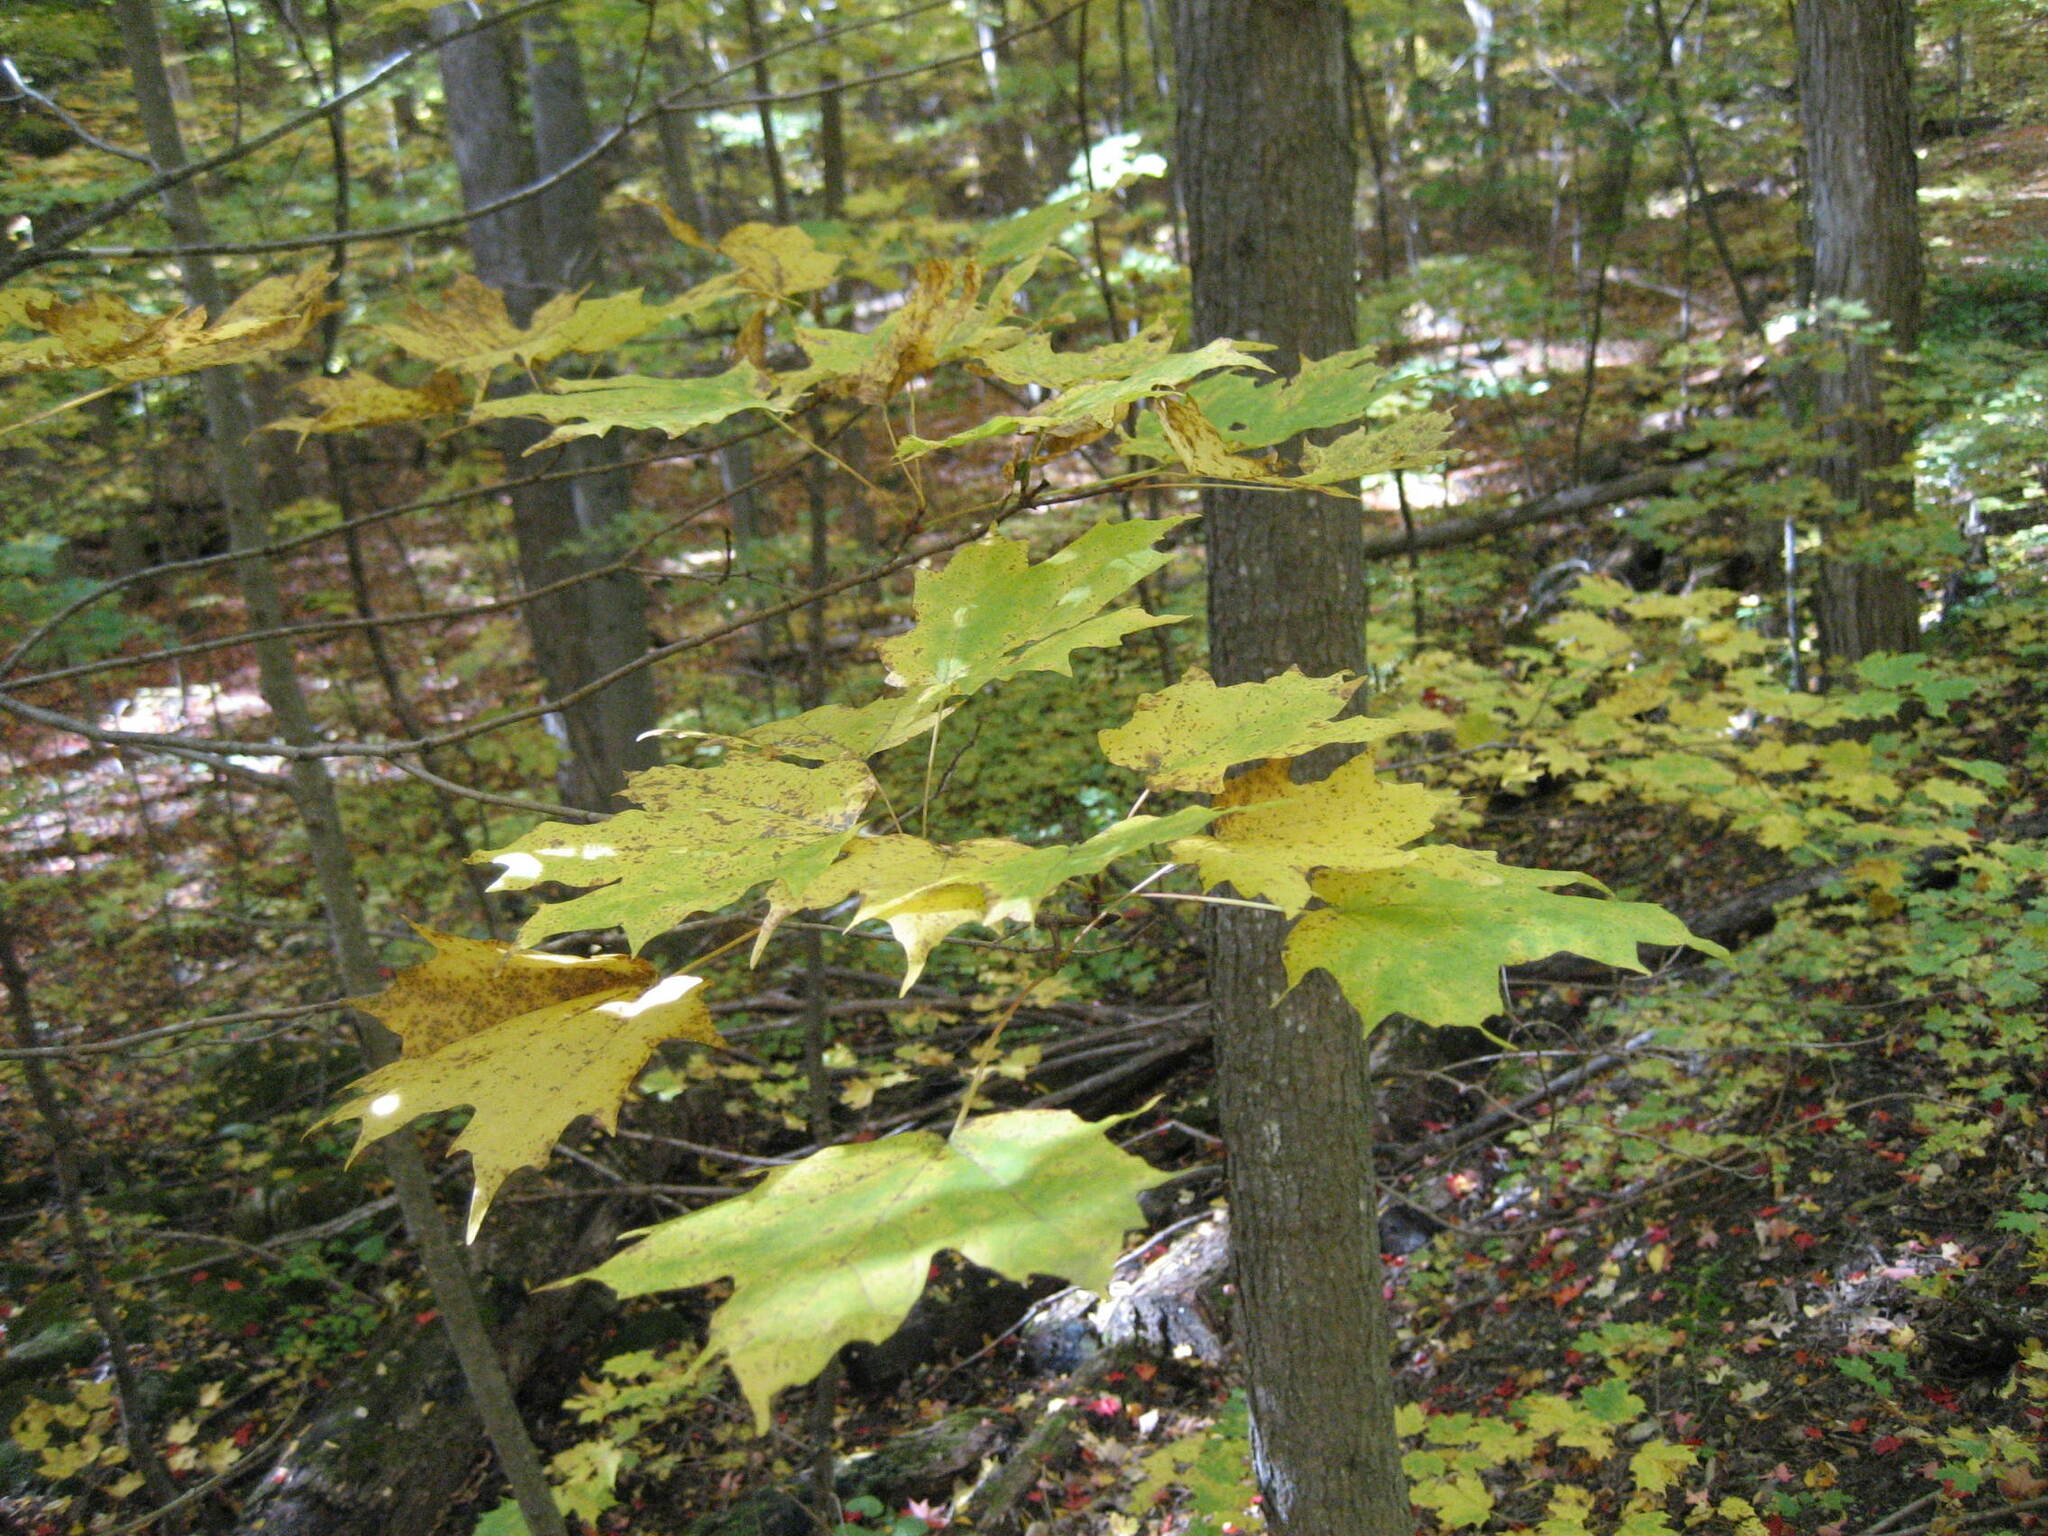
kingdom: Plantae
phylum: Tracheophyta
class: Magnoliopsida
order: Sapindales
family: Sapindaceae
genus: Acer
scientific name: Acer saccharum
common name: Sugar maple
